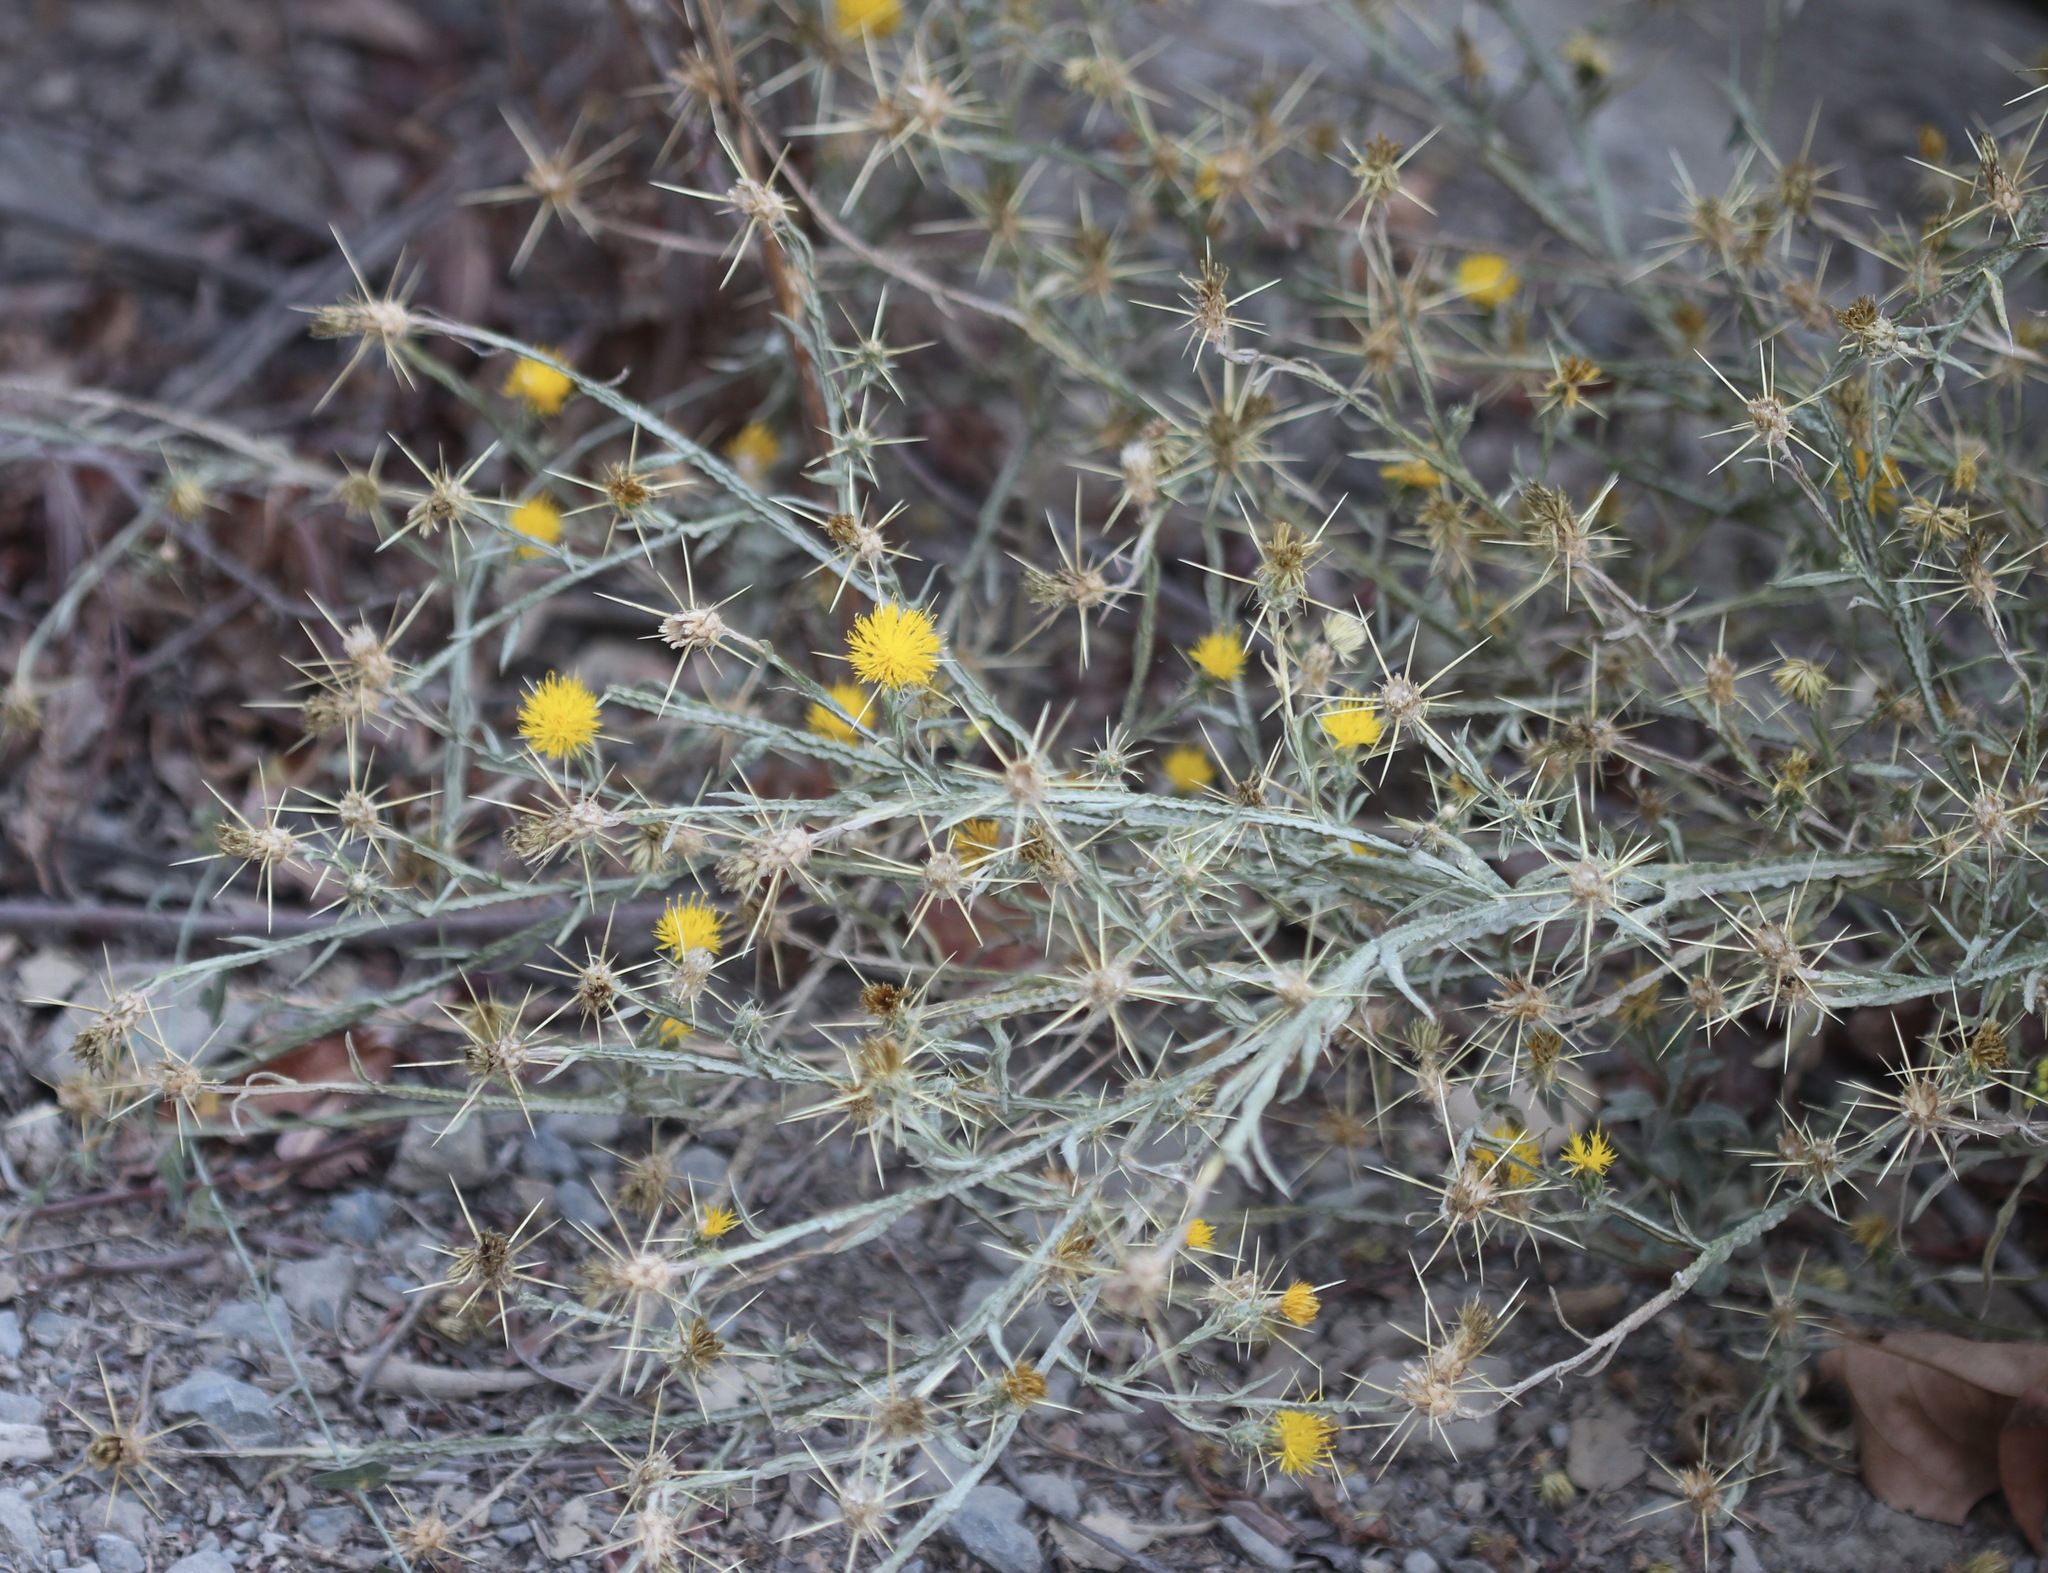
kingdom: Plantae
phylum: Tracheophyta
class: Magnoliopsida
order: Asterales
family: Asteraceae
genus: Centaurea
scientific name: Centaurea solstitialis
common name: Yellow star-thistle
